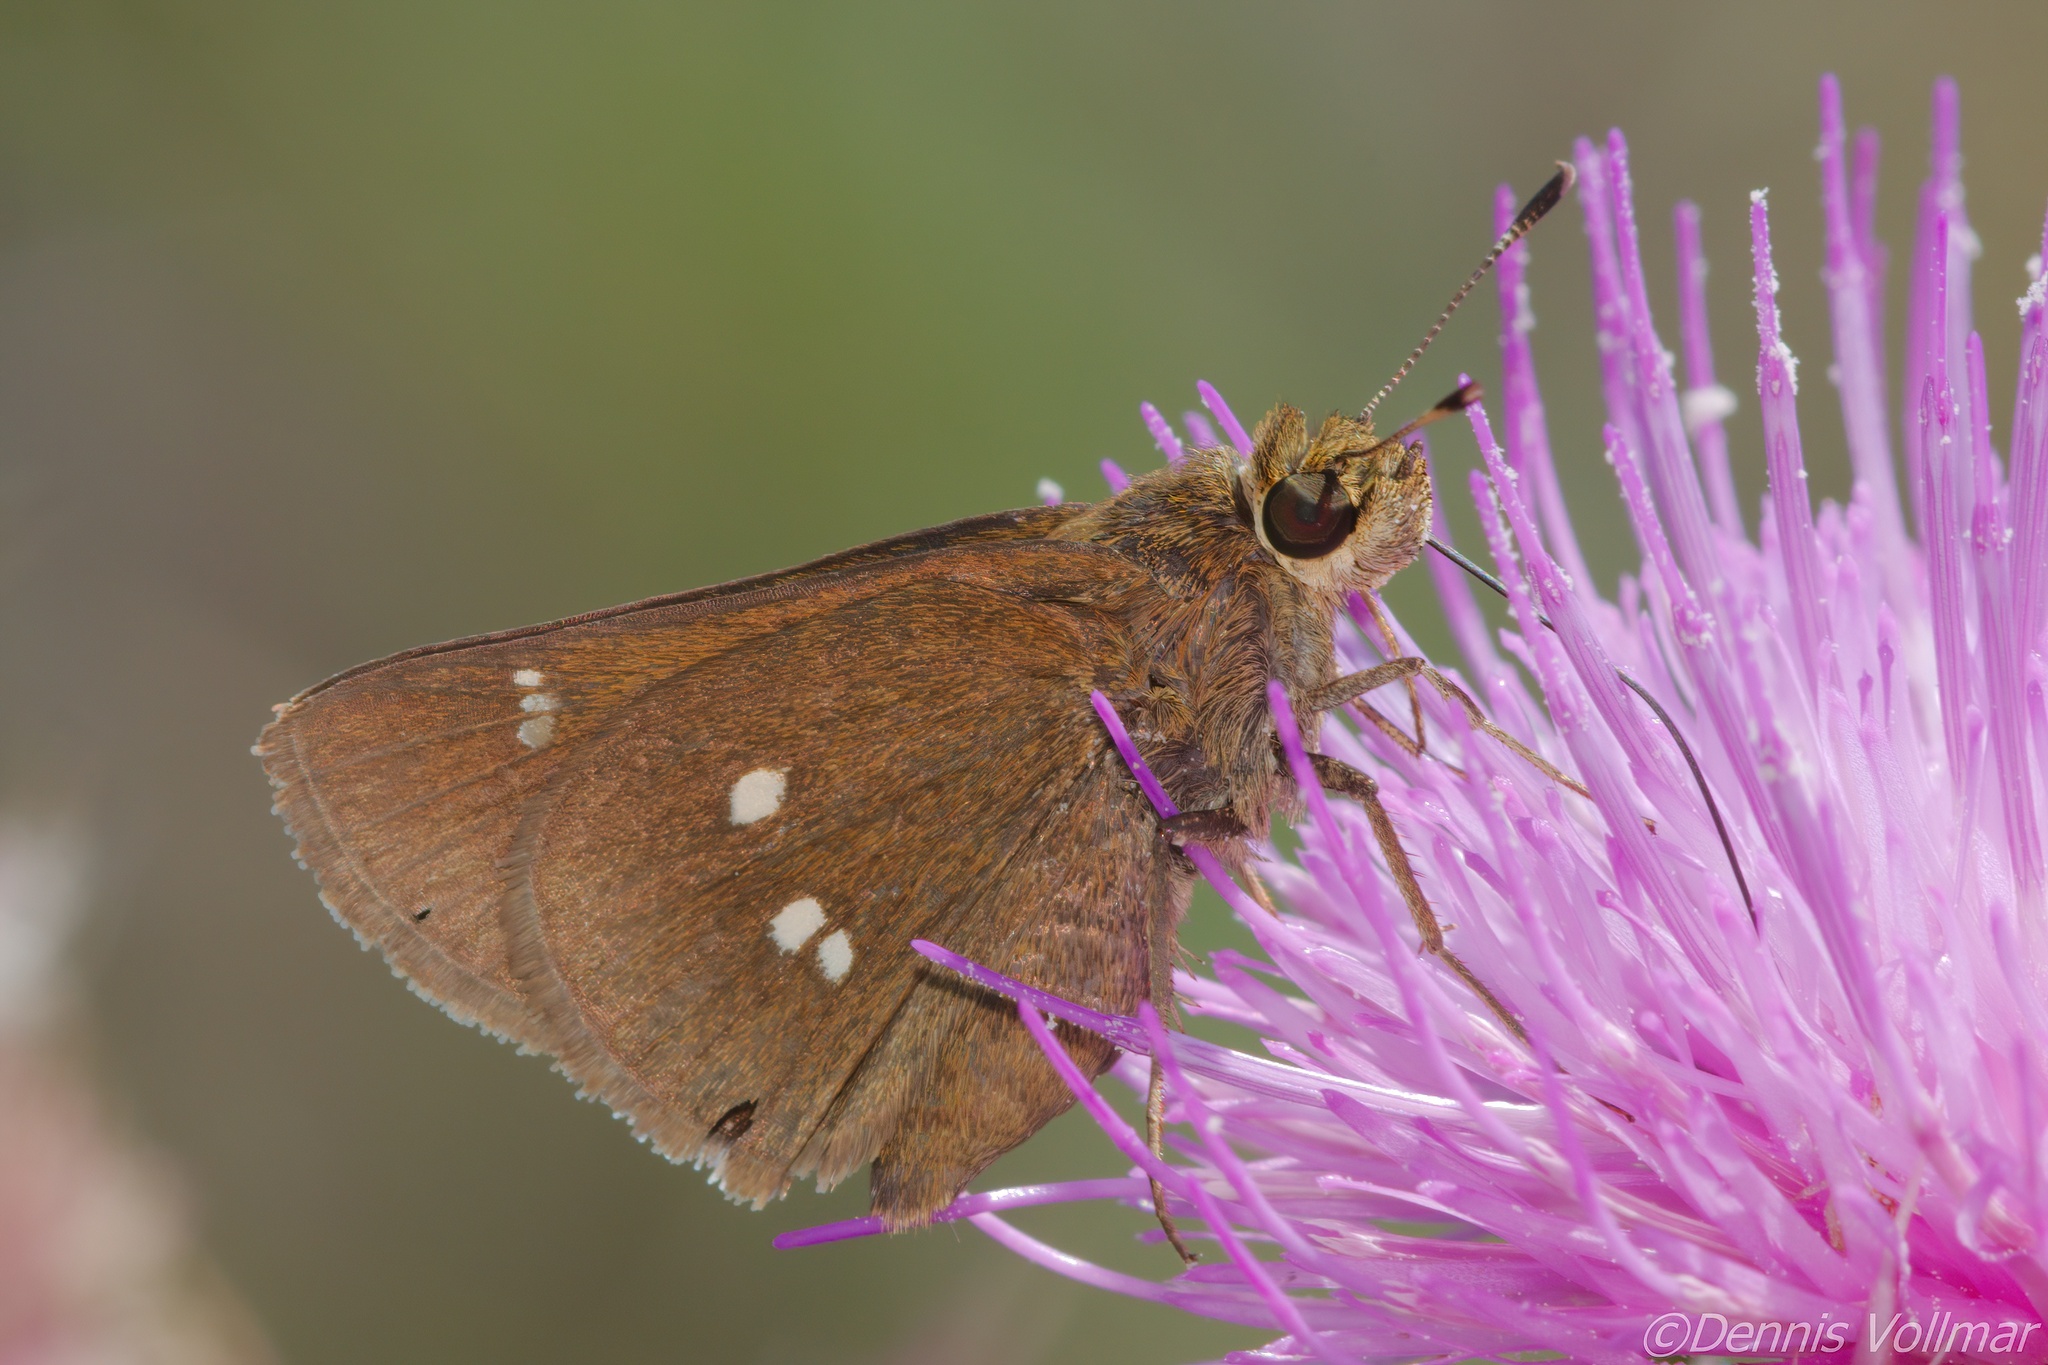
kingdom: Animalia
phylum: Arthropoda
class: Insecta
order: Lepidoptera
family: Hesperiidae
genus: Oligoria
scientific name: Oligoria maculata
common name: Twin-spot skipper
